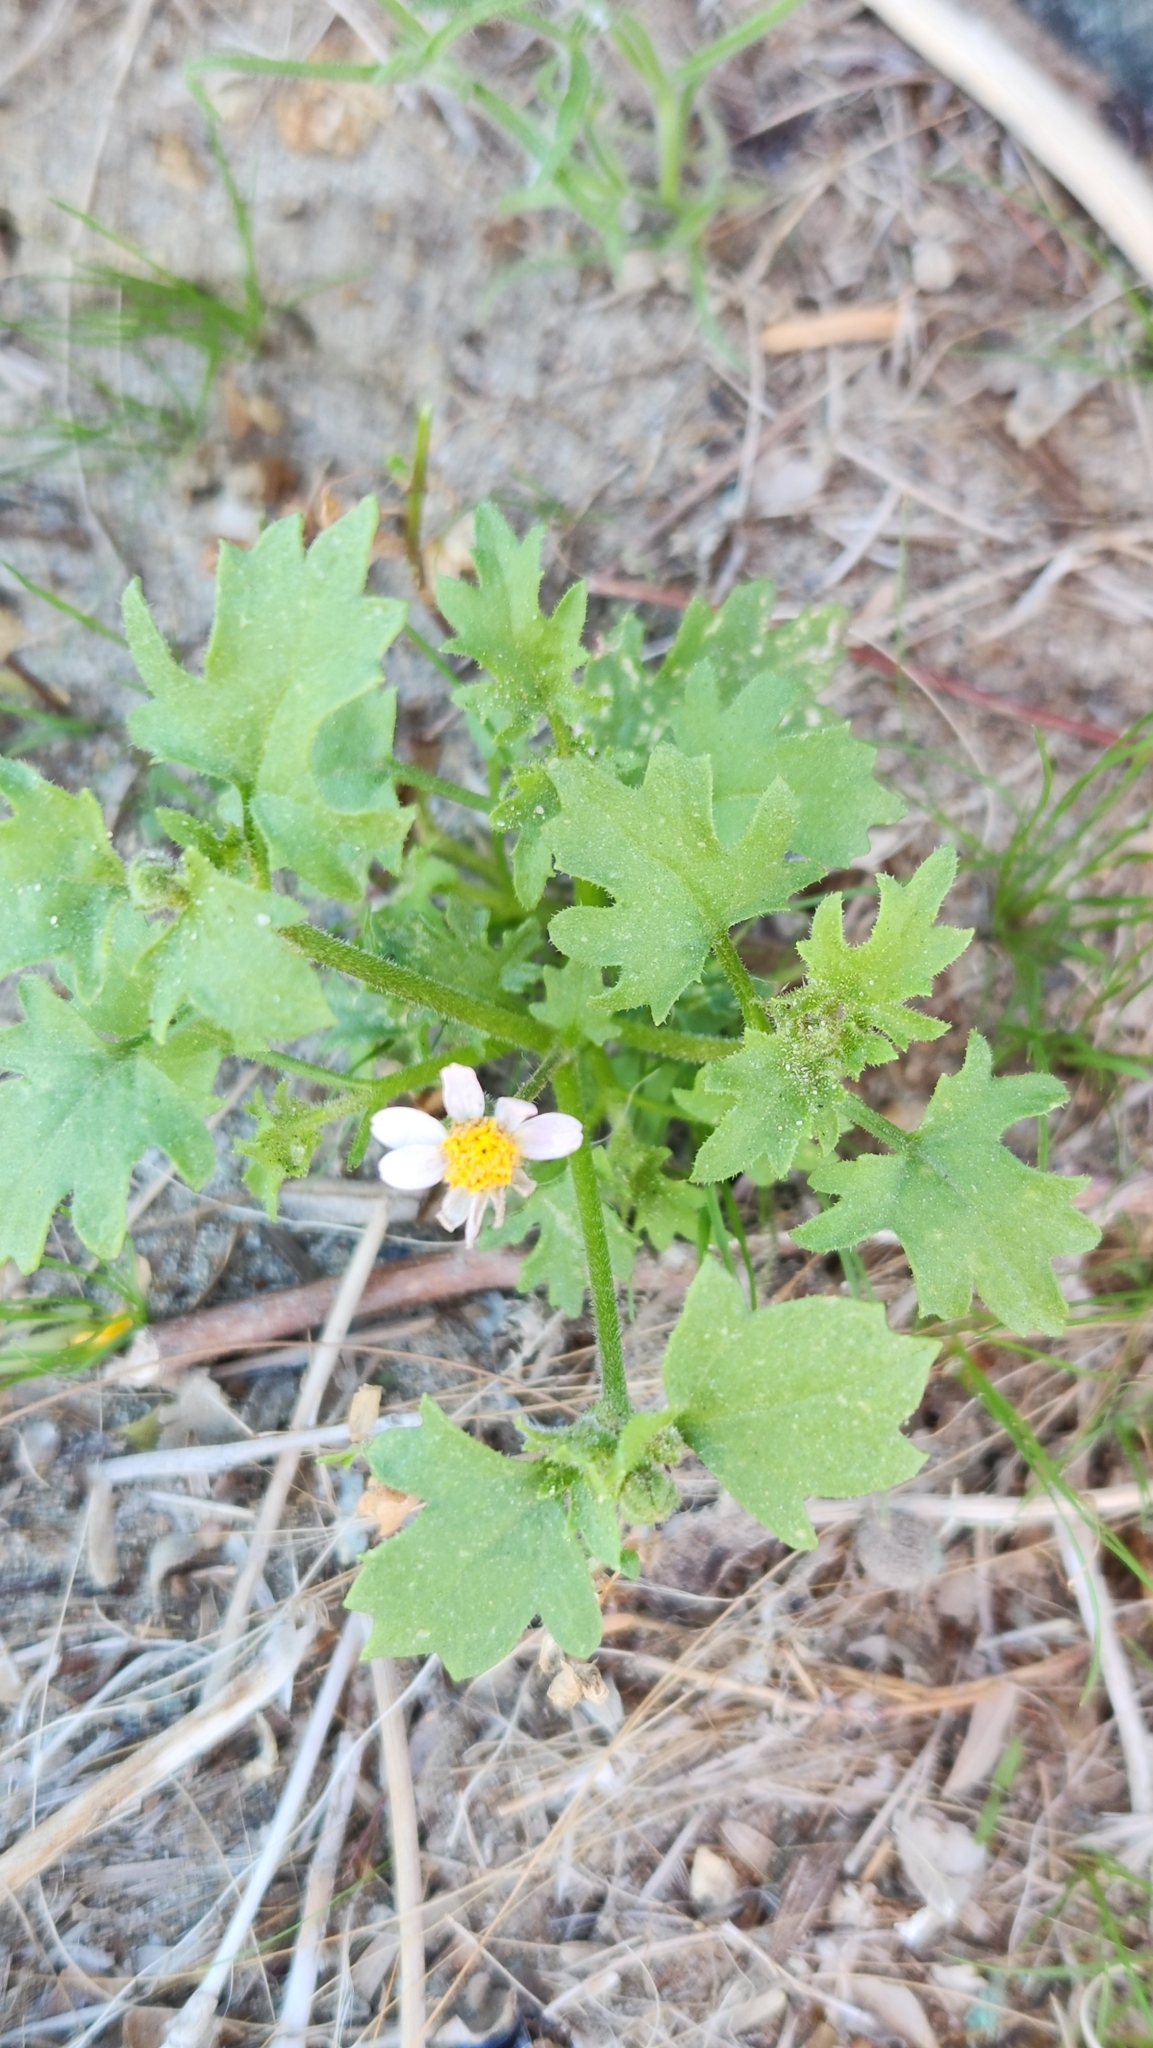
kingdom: Plantae
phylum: Tracheophyta
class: Magnoliopsida
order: Asterales
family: Asteraceae
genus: Laphamia
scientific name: Laphamia emoryi
